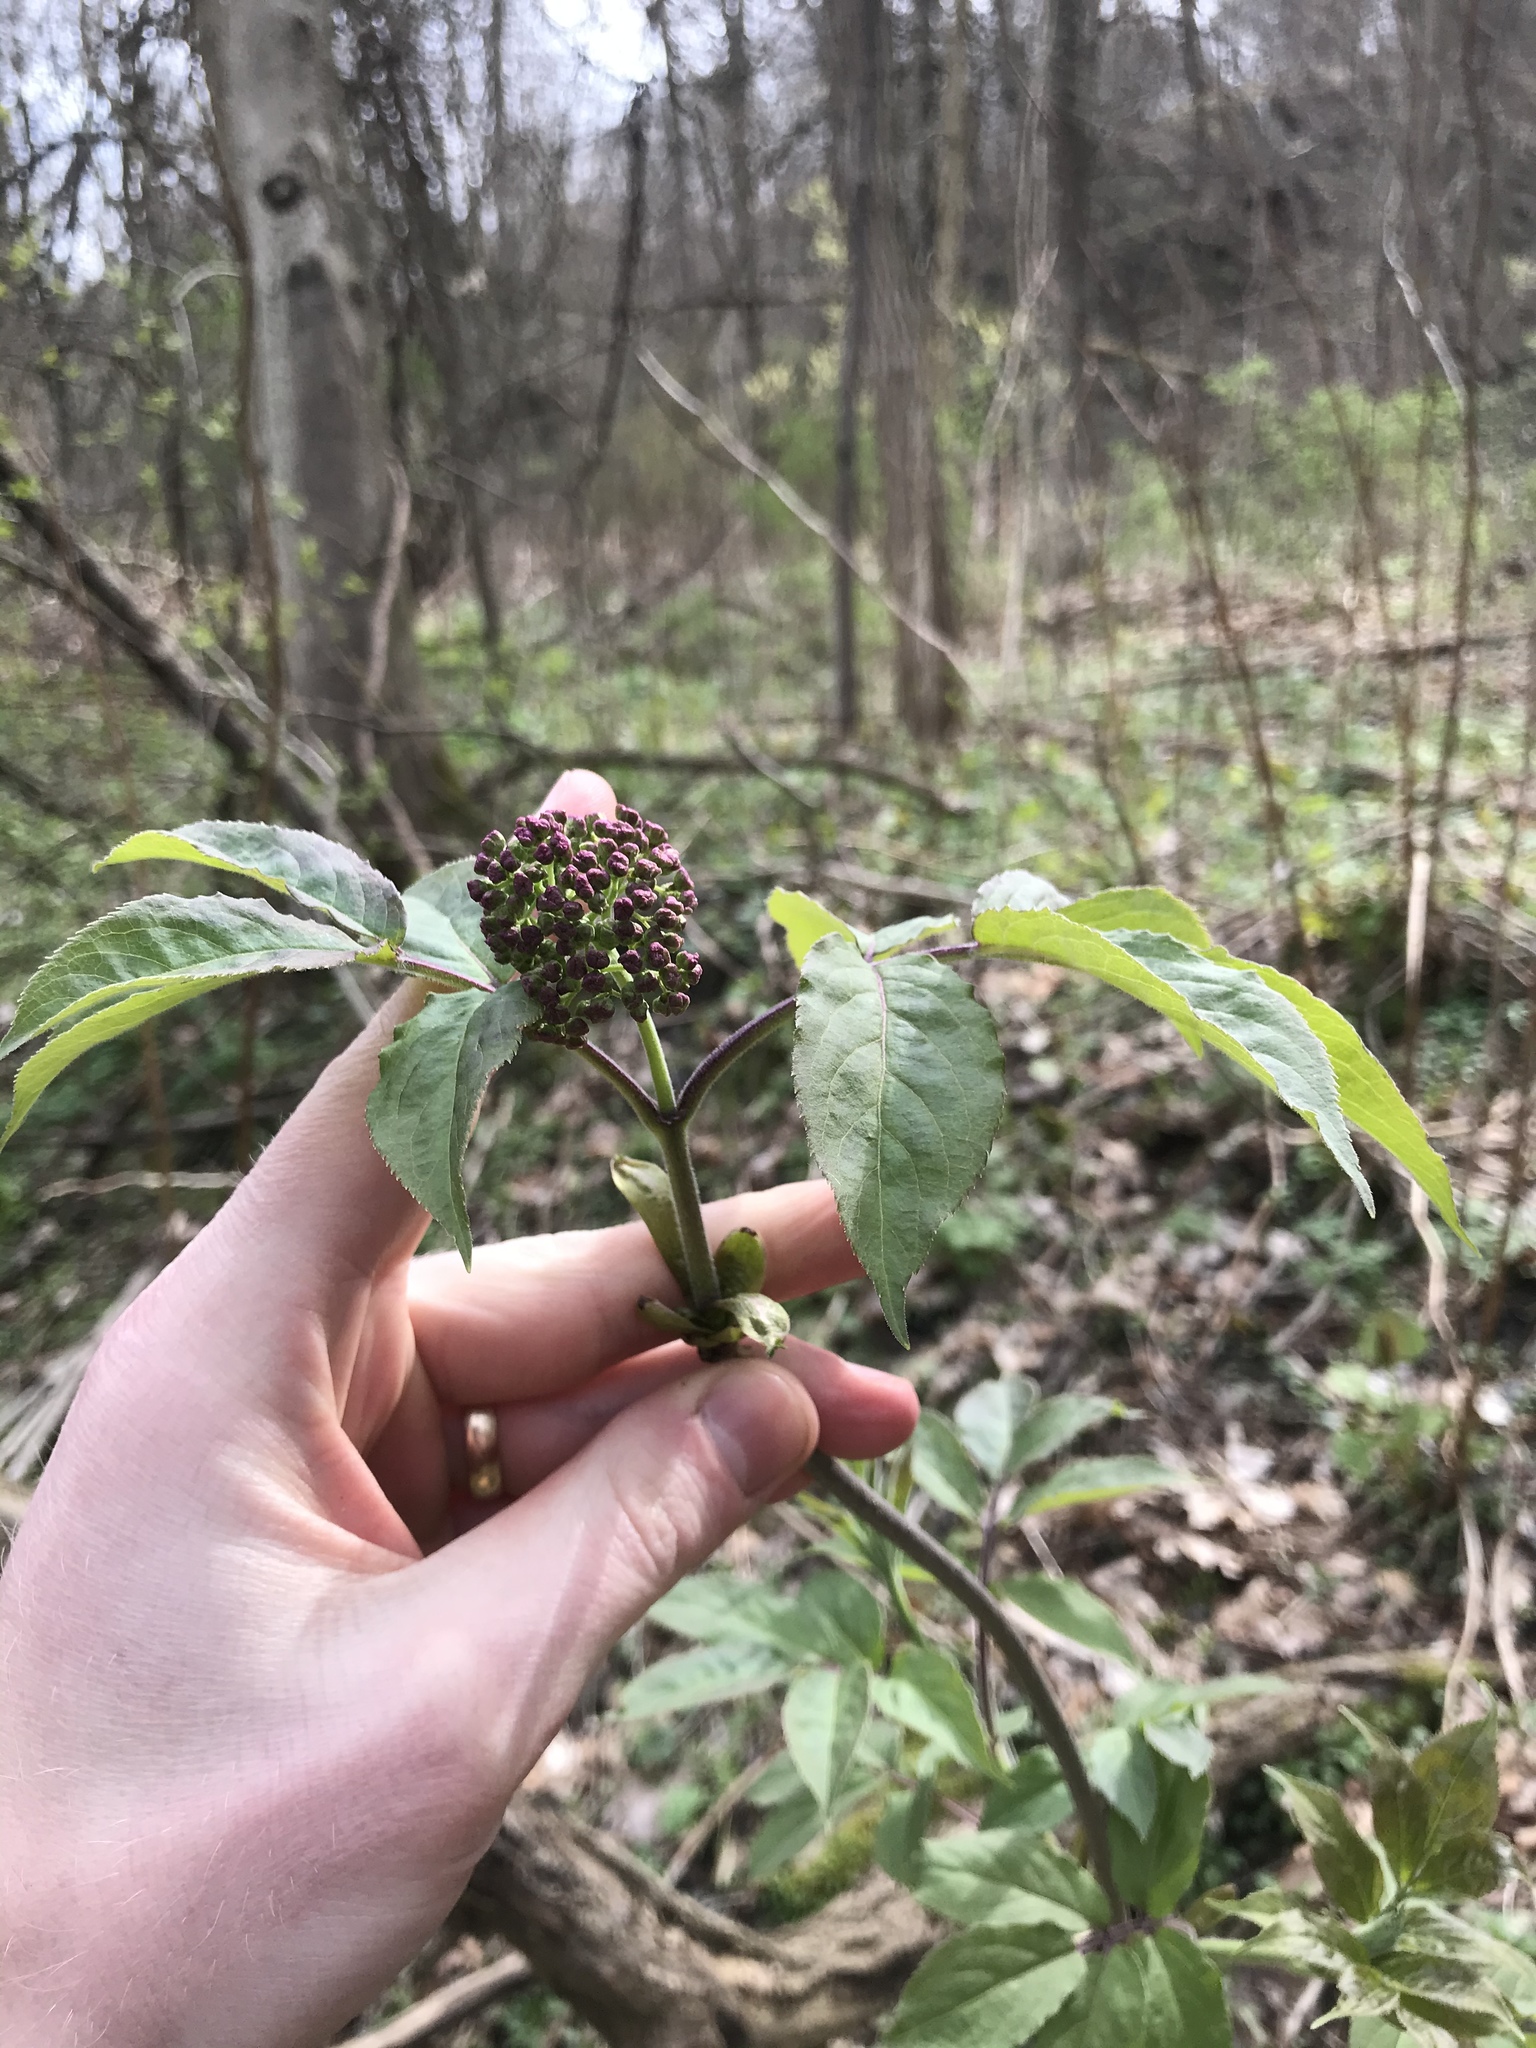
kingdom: Plantae
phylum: Tracheophyta
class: Magnoliopsida
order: Dipsacales
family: Viburnaceae
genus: Sambucus
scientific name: Sambucus racemosa
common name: Red-berried elder
